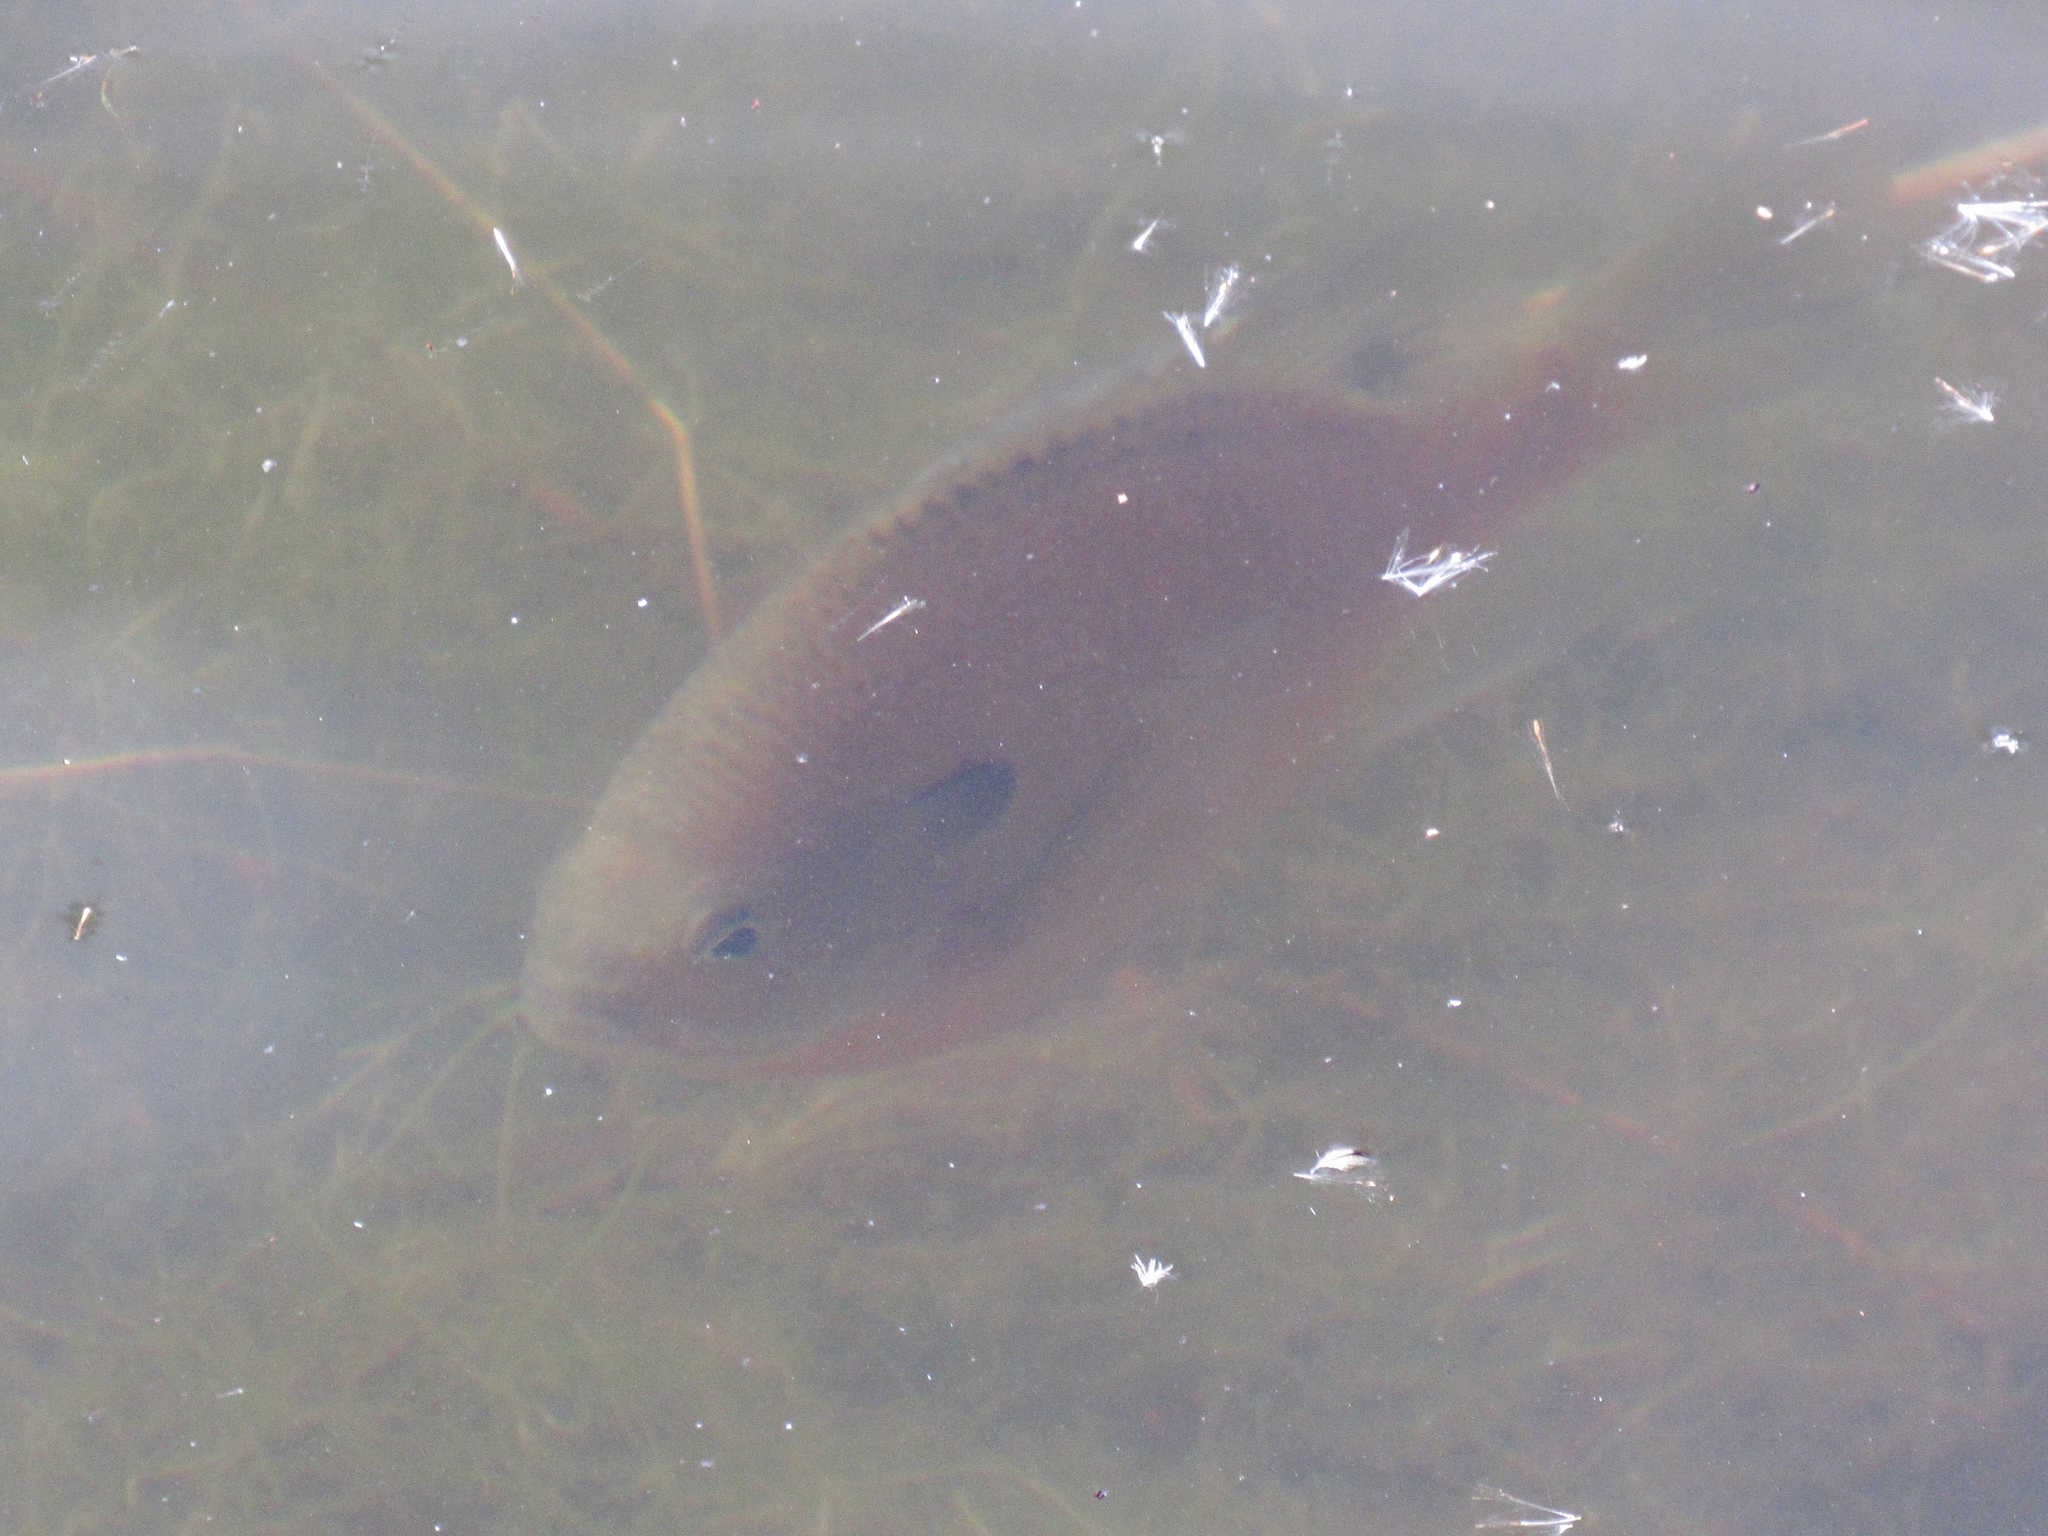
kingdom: Animalia
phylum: Chordata
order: Perciformes
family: Centrarchidae
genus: Lepomis
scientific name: Lepomis macrochirus
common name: Bluegill
